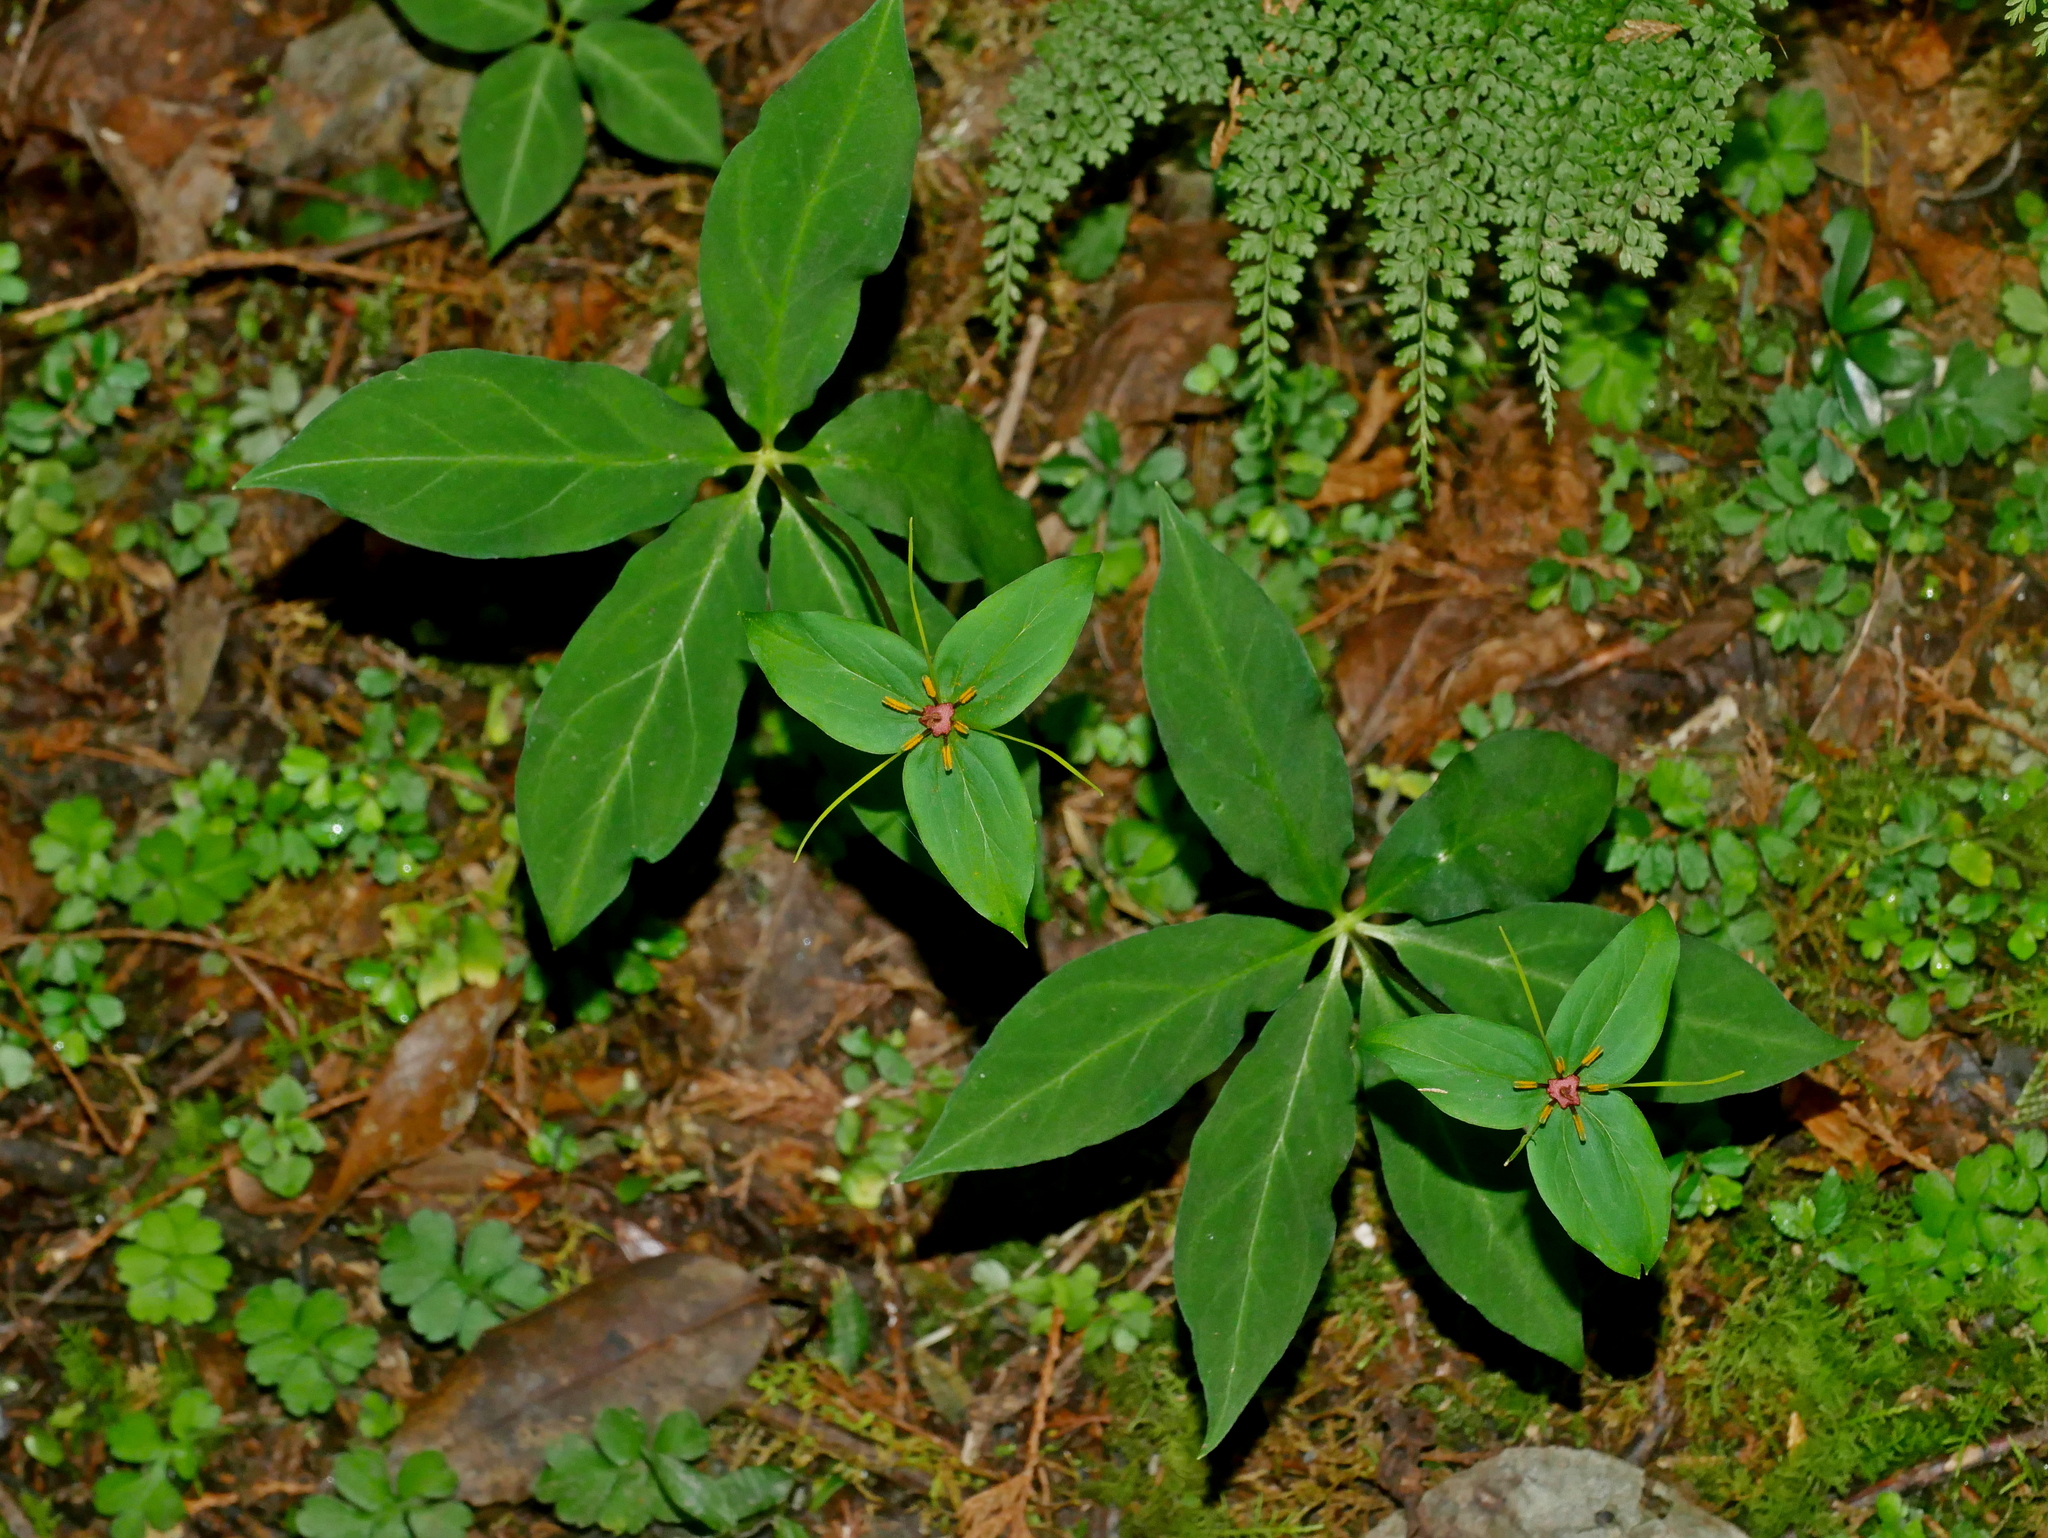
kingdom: Plantae
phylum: Tracheophyta
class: Liliopsida
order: Liliales
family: Melanthiaceae
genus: Paris
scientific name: Paris polyphylla
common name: Love apple
